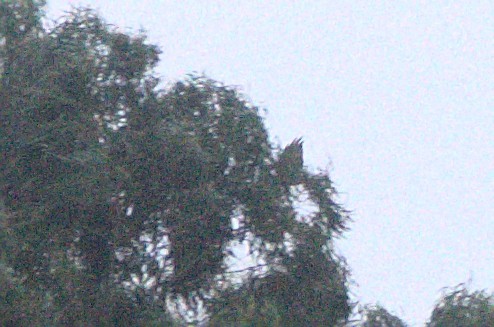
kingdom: Animalia
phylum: Chordata
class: Aves
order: Accipitriformes
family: Accipitridae
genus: Circus
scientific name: Circus approximans
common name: Swamp harrier
